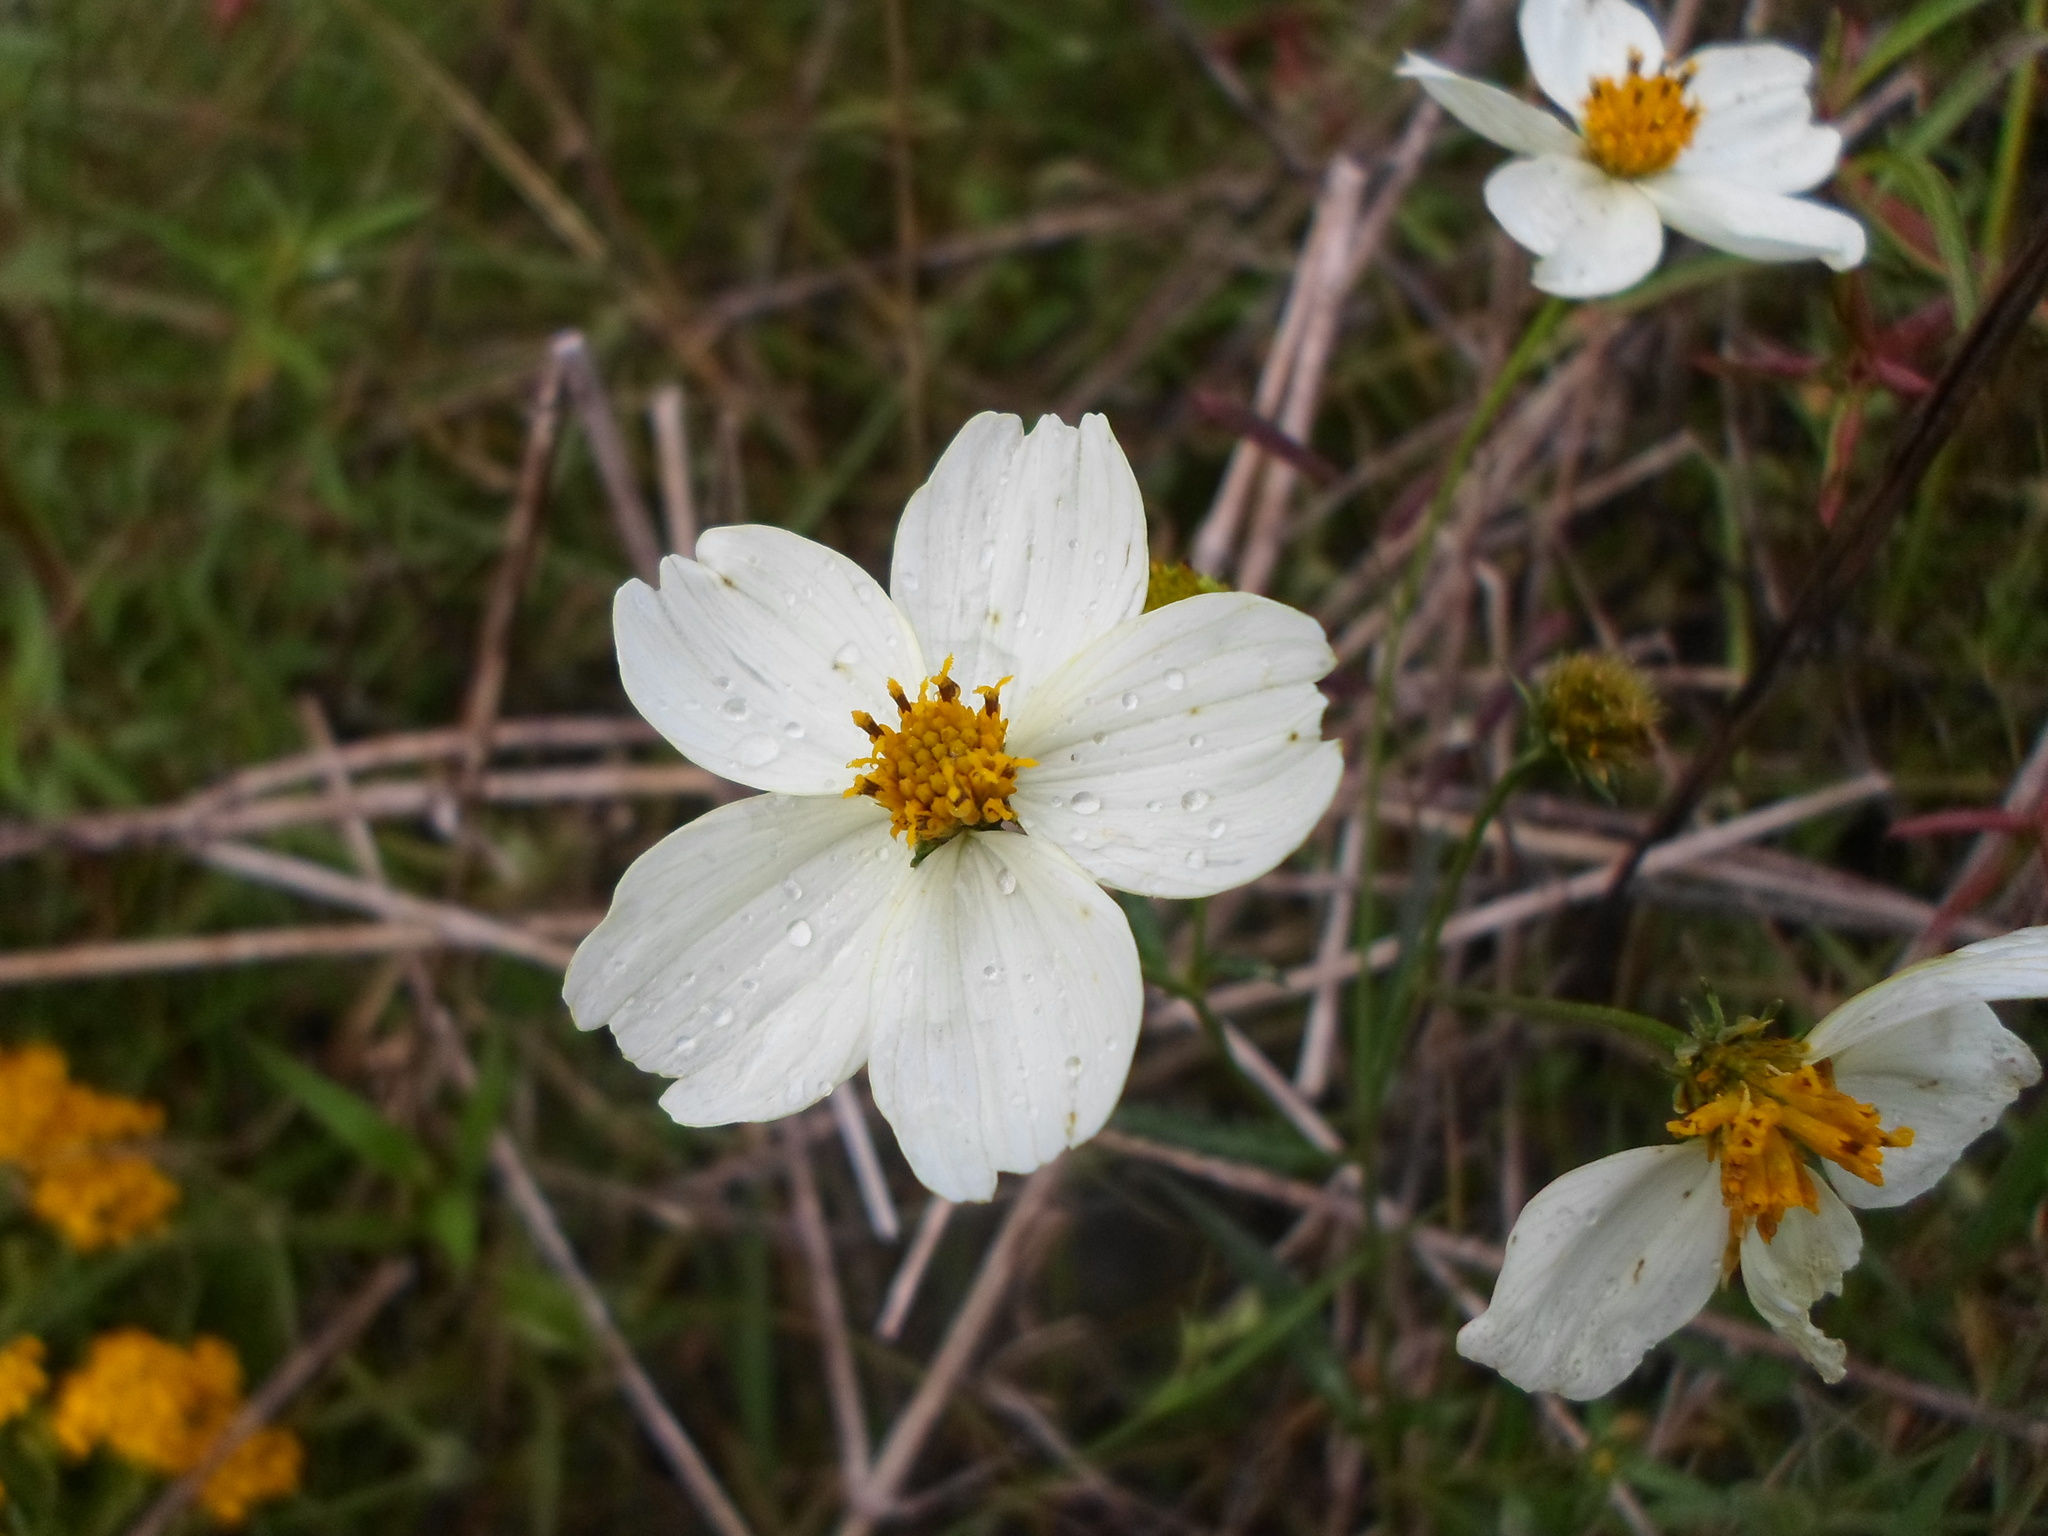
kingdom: Plantae
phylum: Tracheophyta
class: Magnoliopsida
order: Asterales
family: Asteraceae
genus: Bidens
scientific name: Bidens aurea
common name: Arizona beggar-ticks
